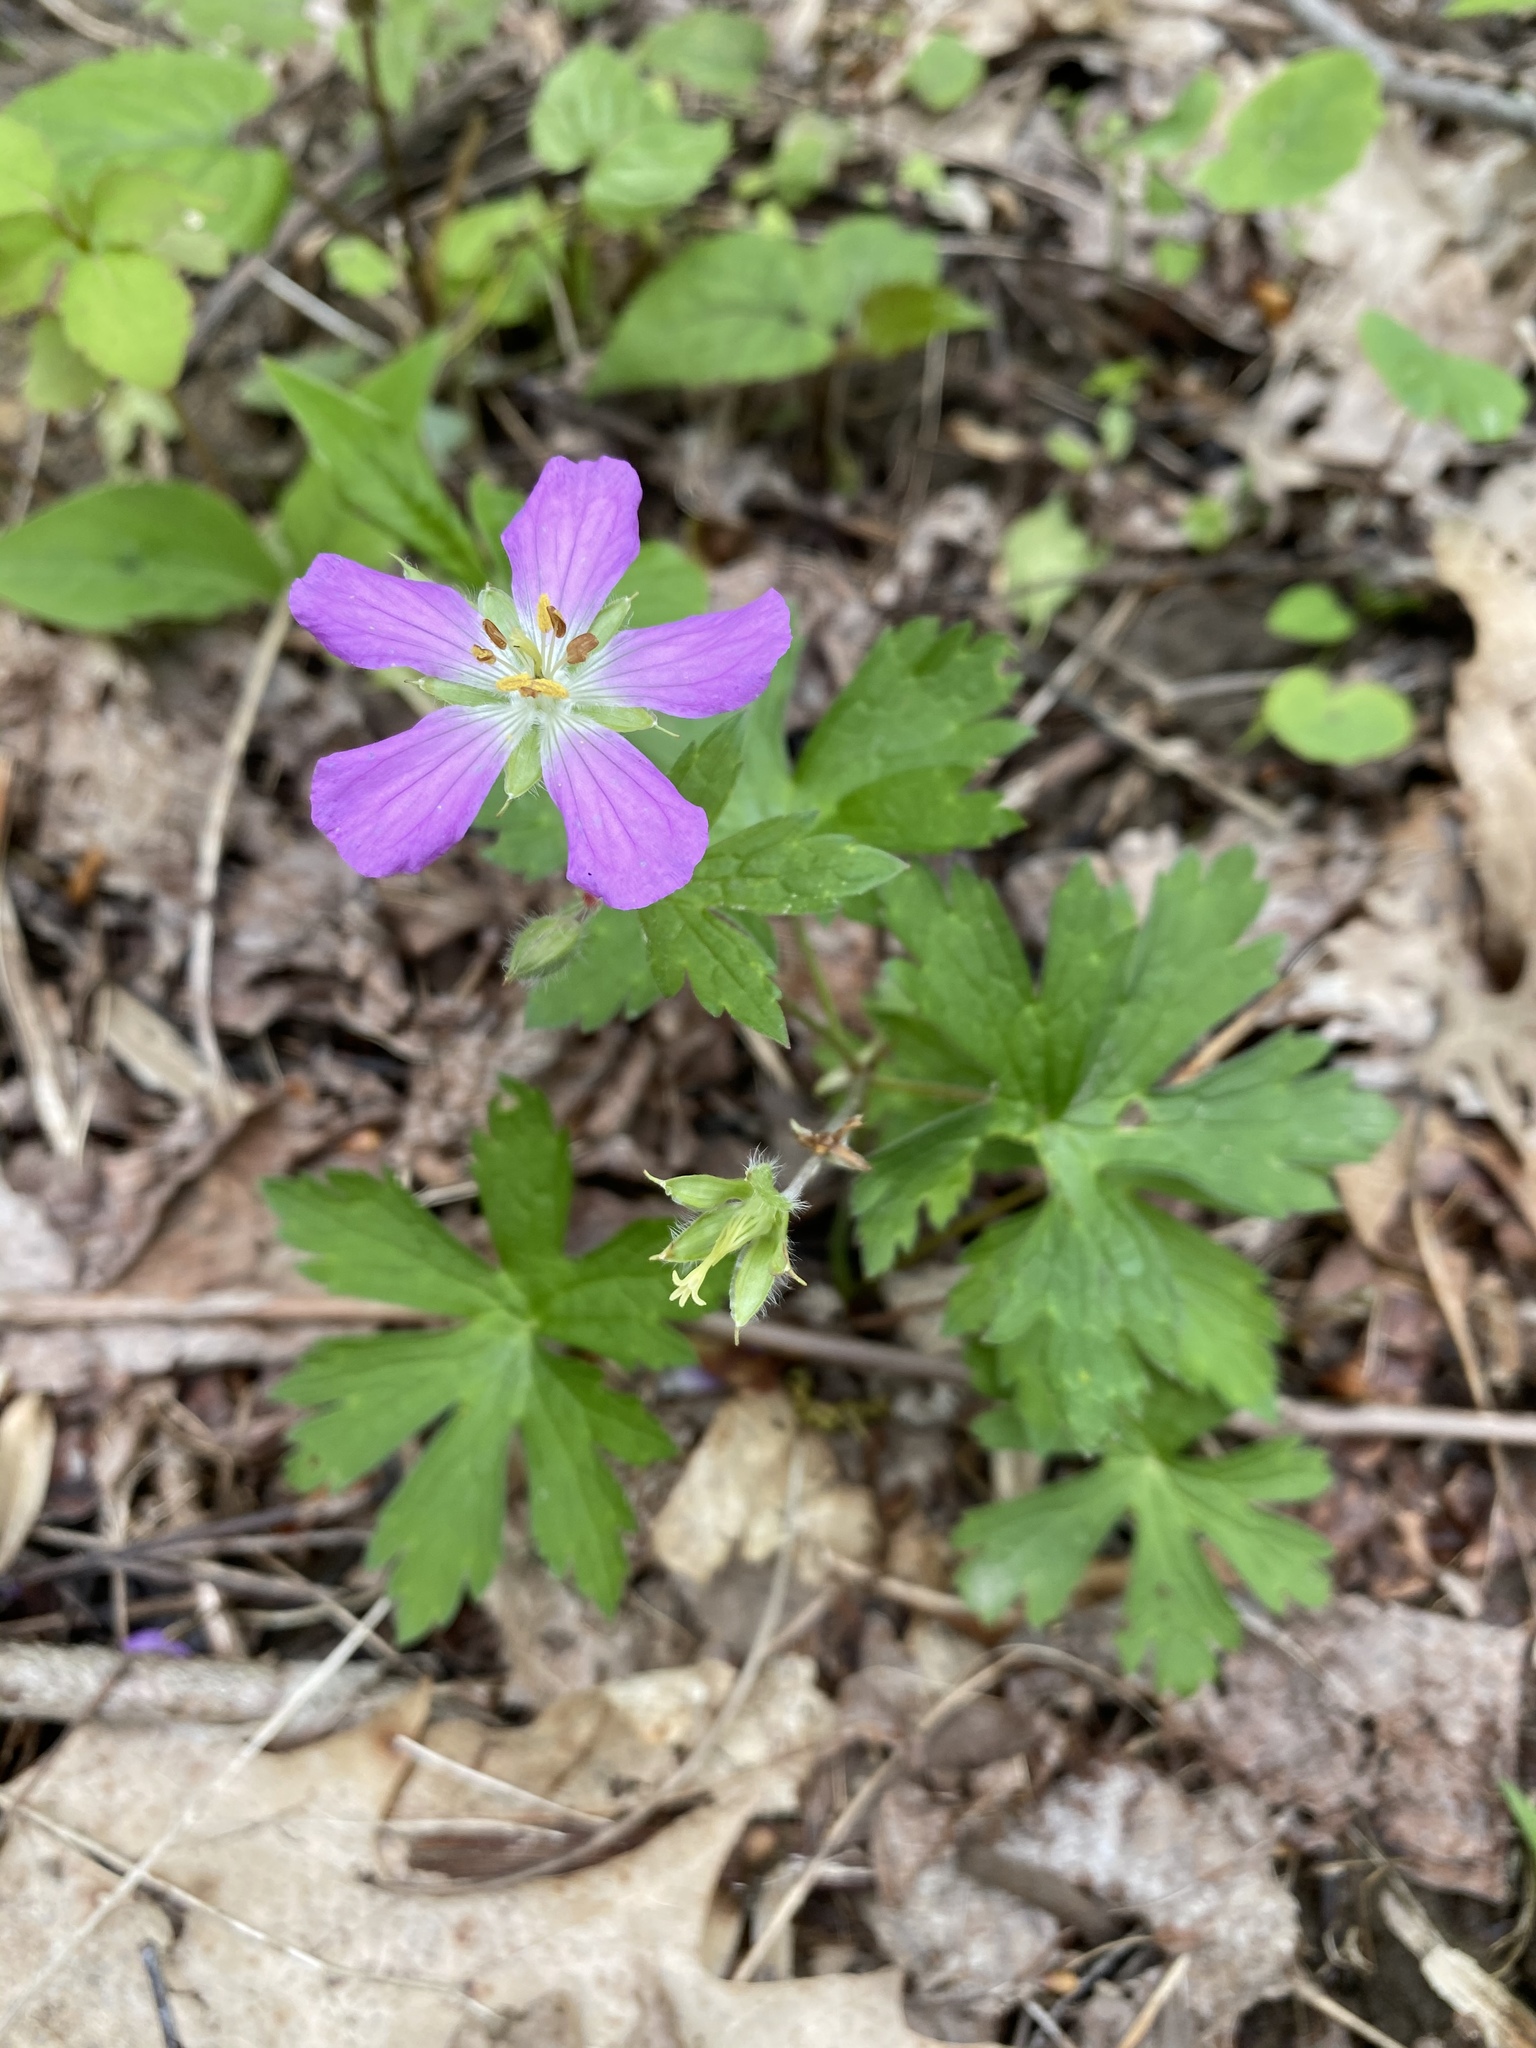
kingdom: Plantae
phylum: Tracheophyta
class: Magnoliopsida
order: Geraniales
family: Geraniaceae
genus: Geranium
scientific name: Geranium maculatum
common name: Spotted geranium
